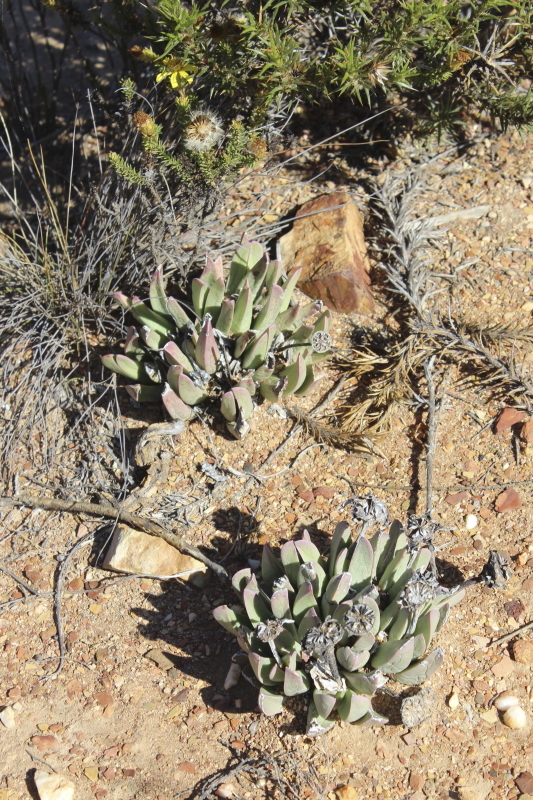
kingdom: Plantae
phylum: Tracheophyta
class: Magnoliopsida
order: Caryophyllales
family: Aizoaceae
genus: Machairophyllum
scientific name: Machairophyllum bijlii
